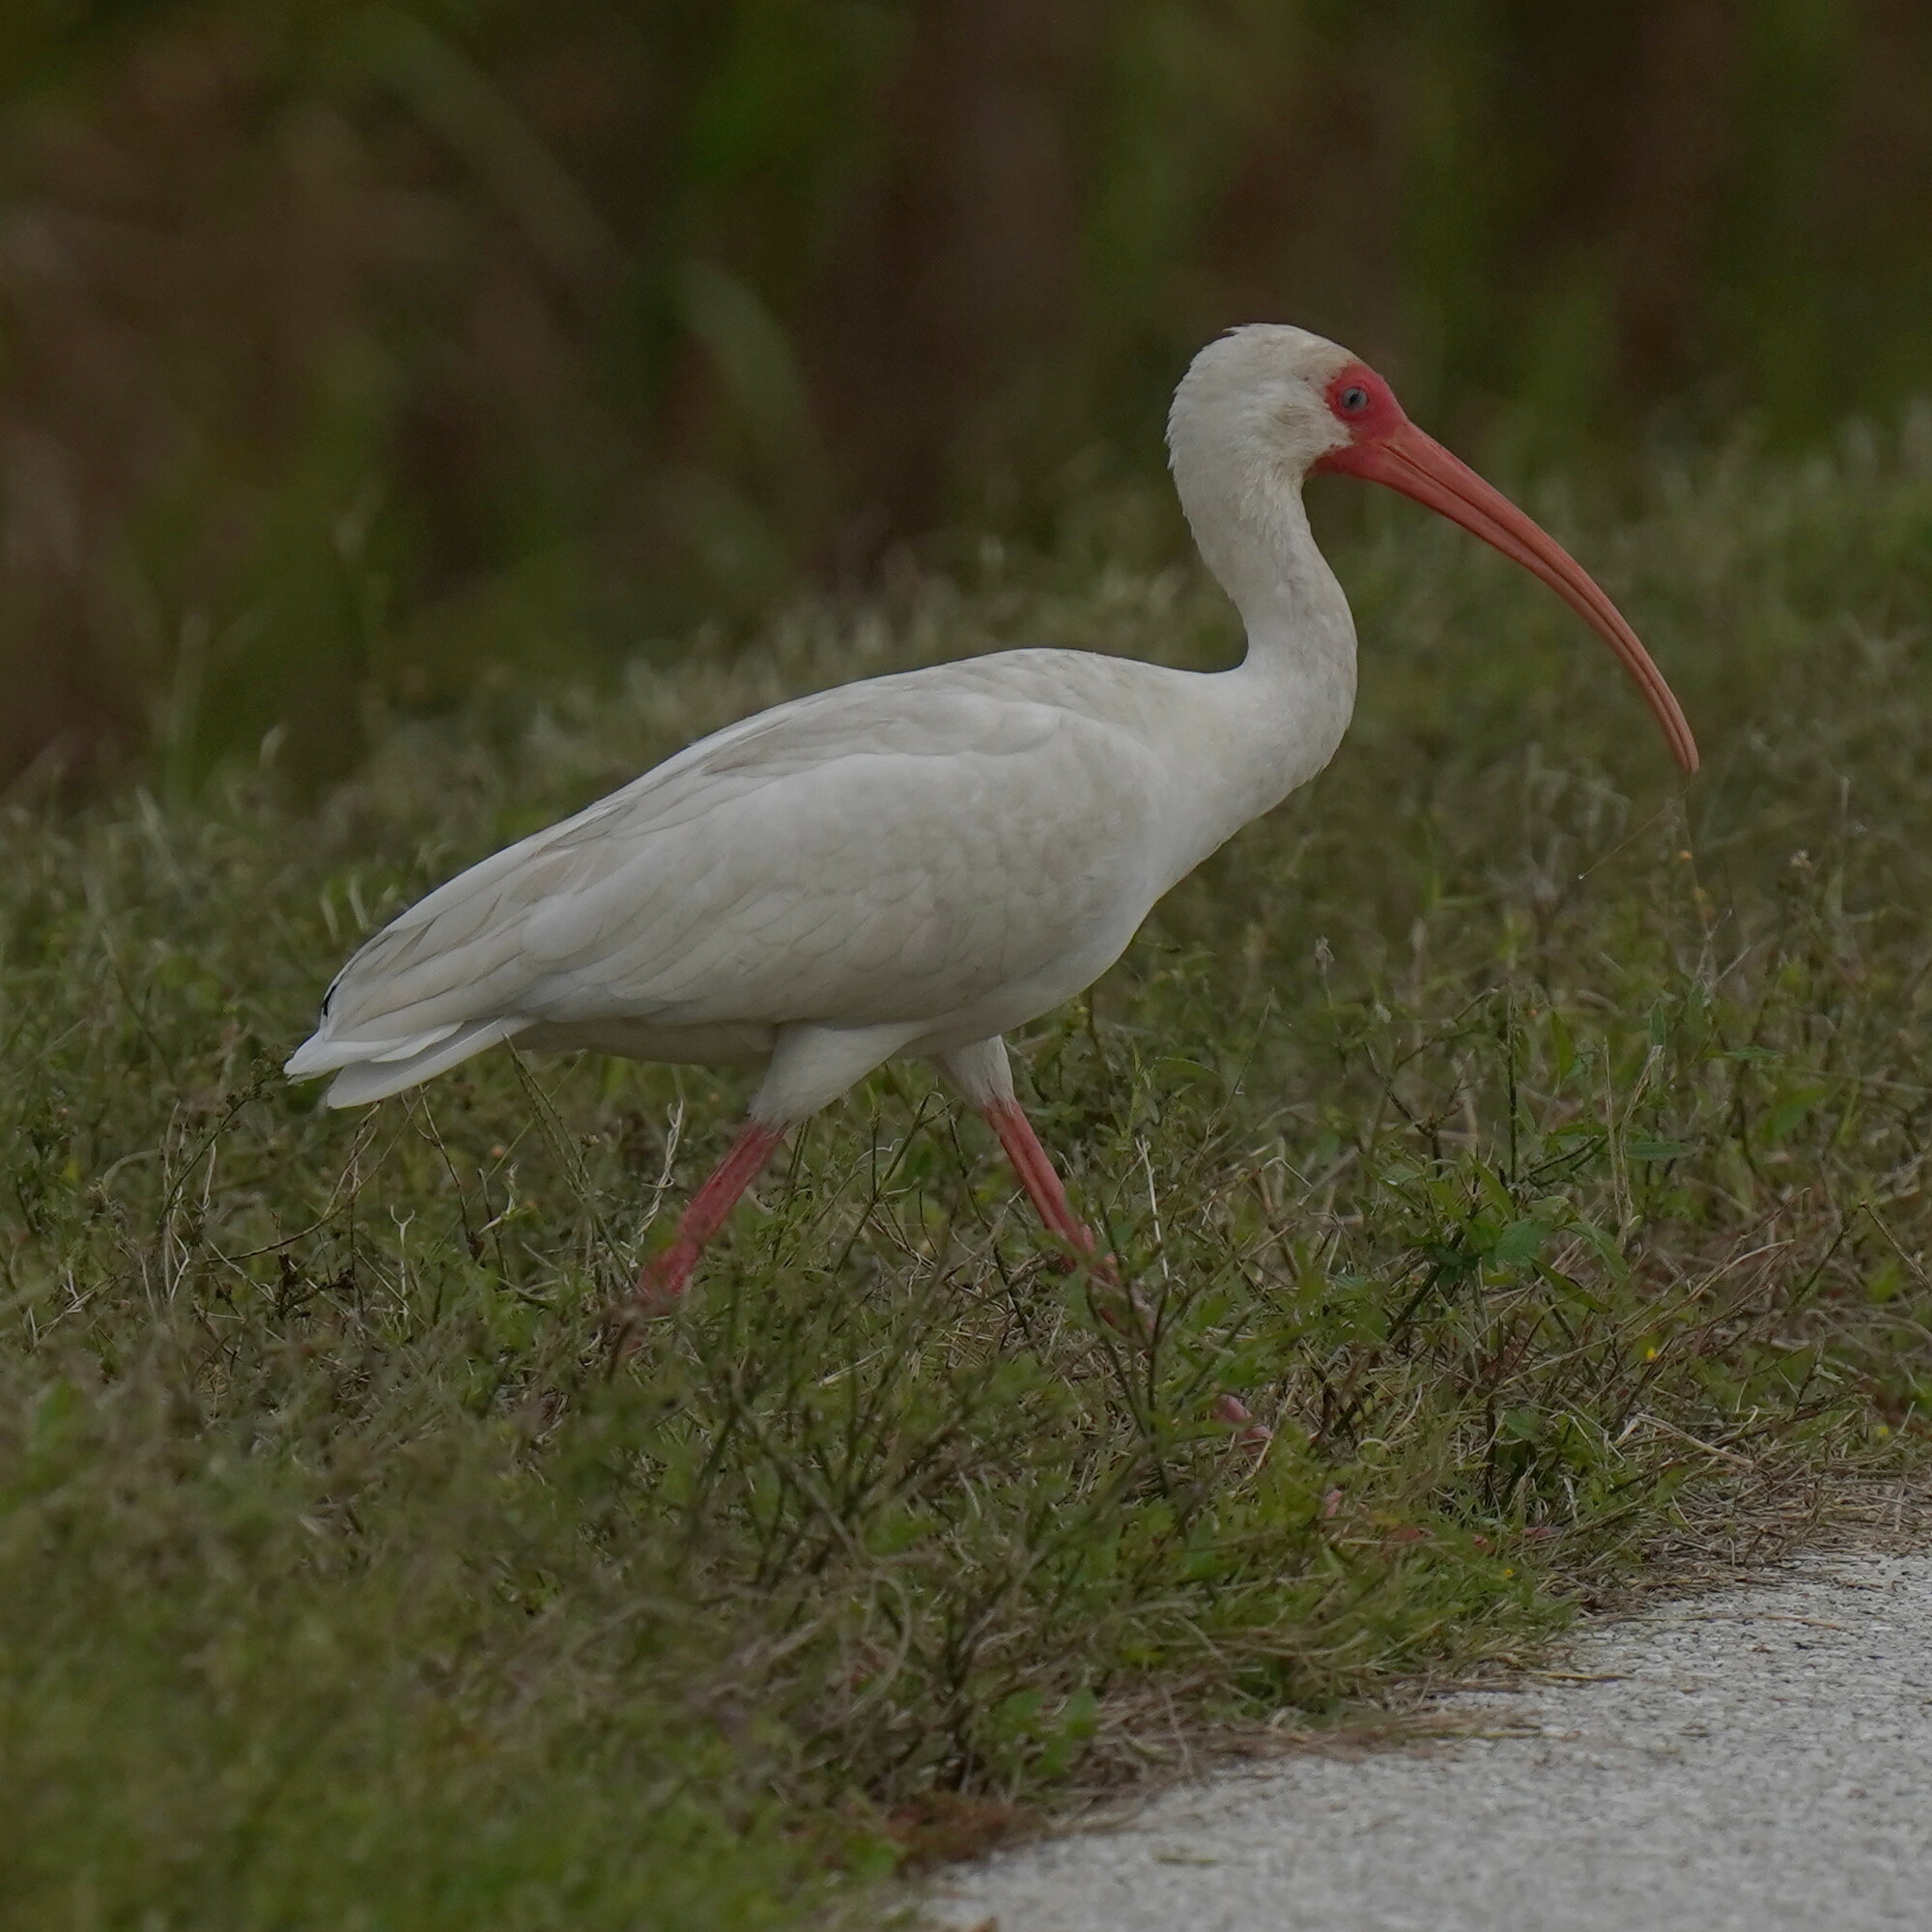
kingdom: Animalia
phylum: Chordata
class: Aves
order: Pelecaniformes
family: Threskiornithidae
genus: Eudocimus
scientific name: Eudocimus albus
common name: White ibis
